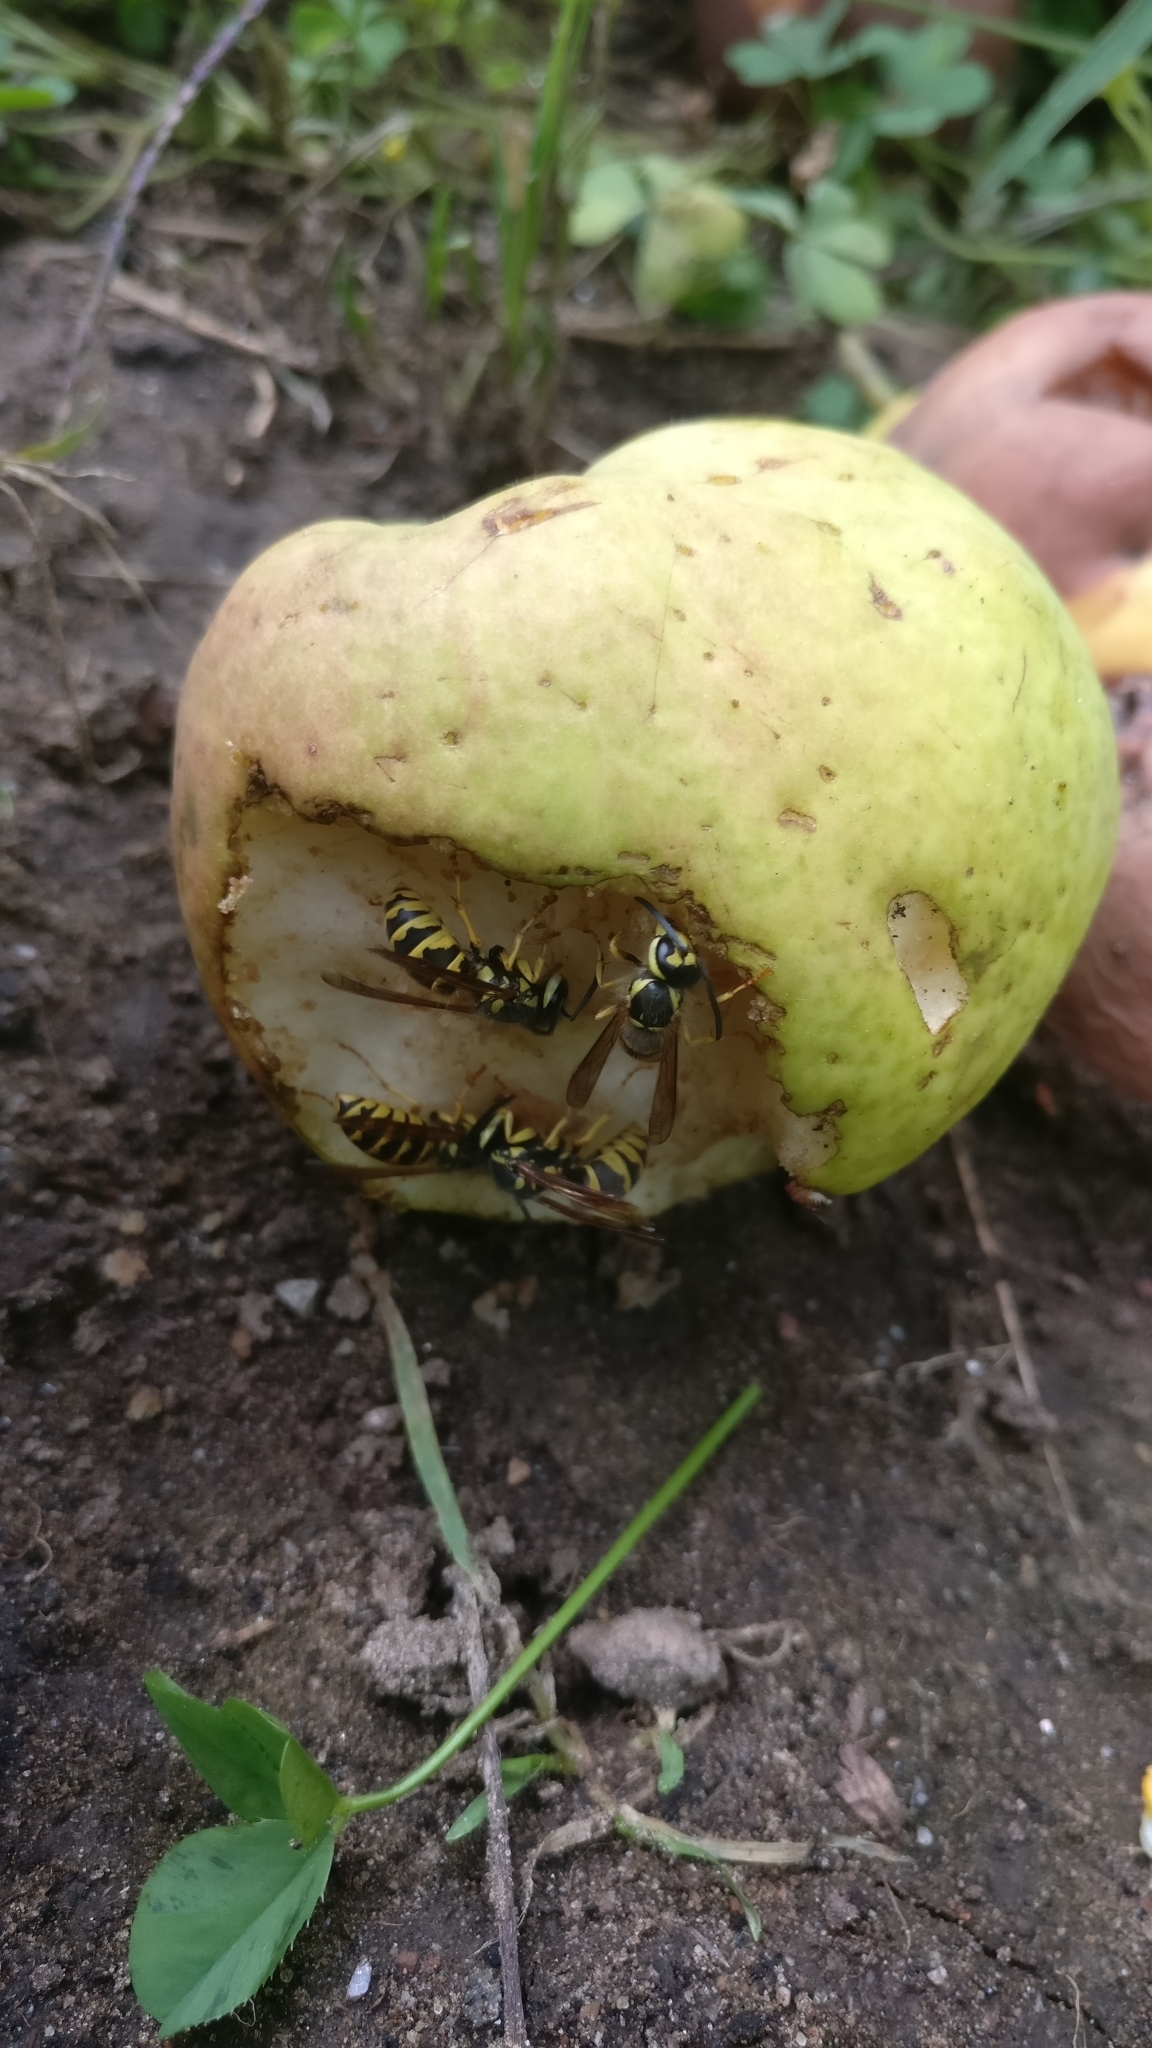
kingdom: Animalia
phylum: Arthropoda
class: Insecta
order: Hymenoptera
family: Vespidae
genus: Vespula
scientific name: Vespula flavopilosa
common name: Downy yellowjacket
